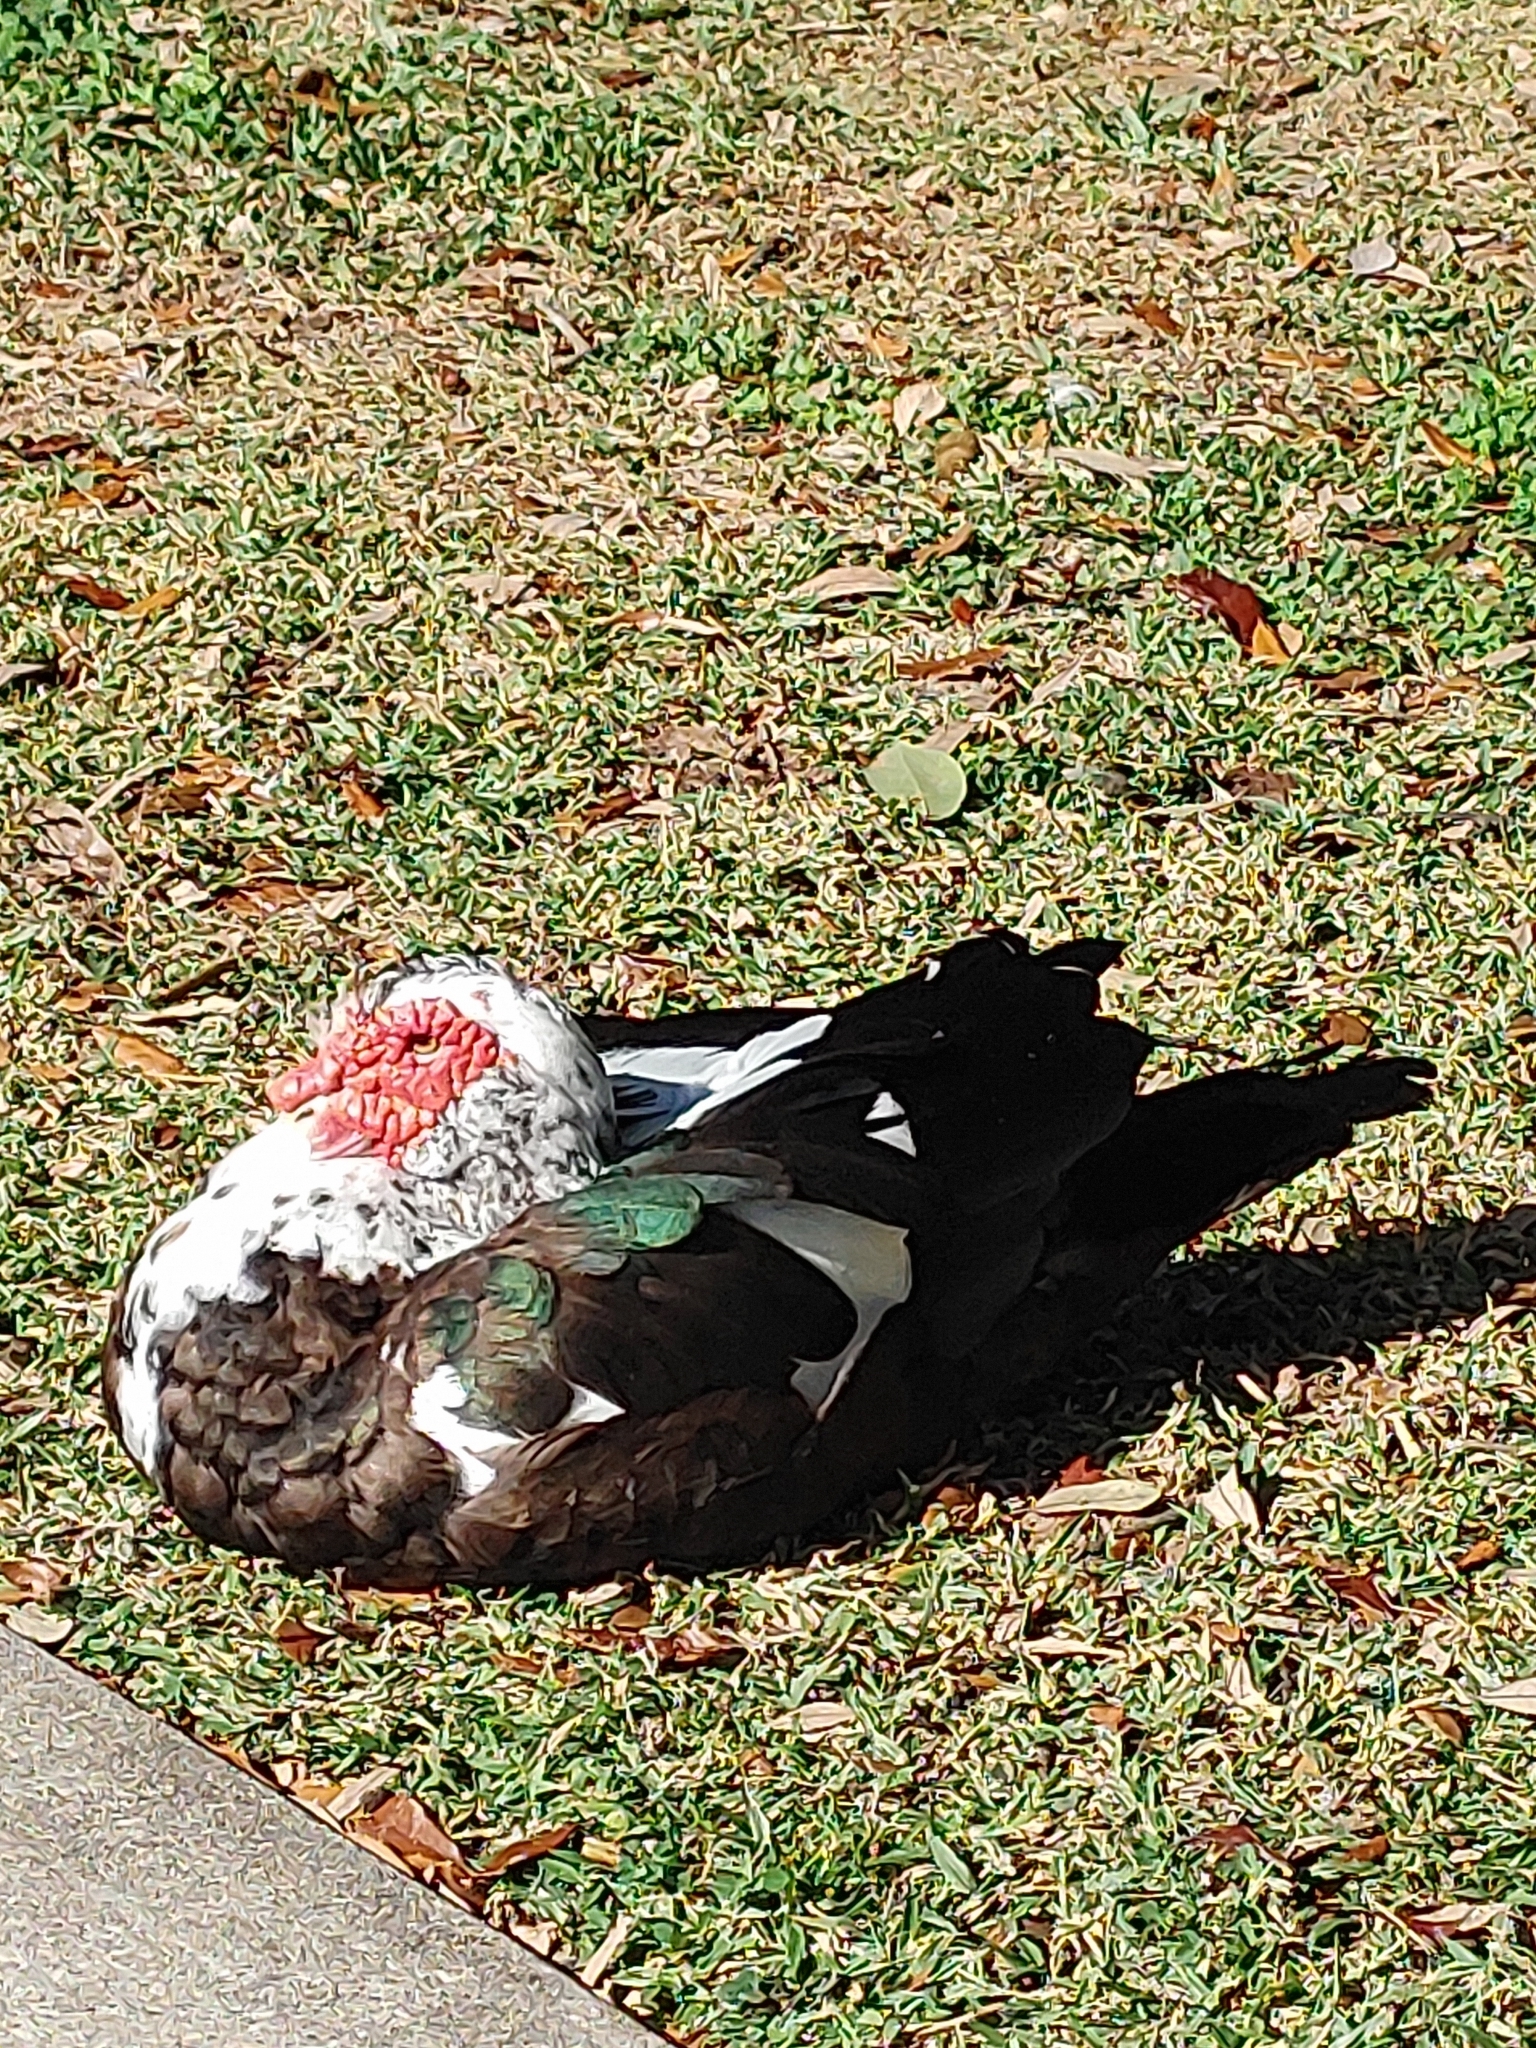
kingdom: Animalia
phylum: Chordata
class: Aves
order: Anseriformes
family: Anatidae
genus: Cairina
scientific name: Cairina moschata
